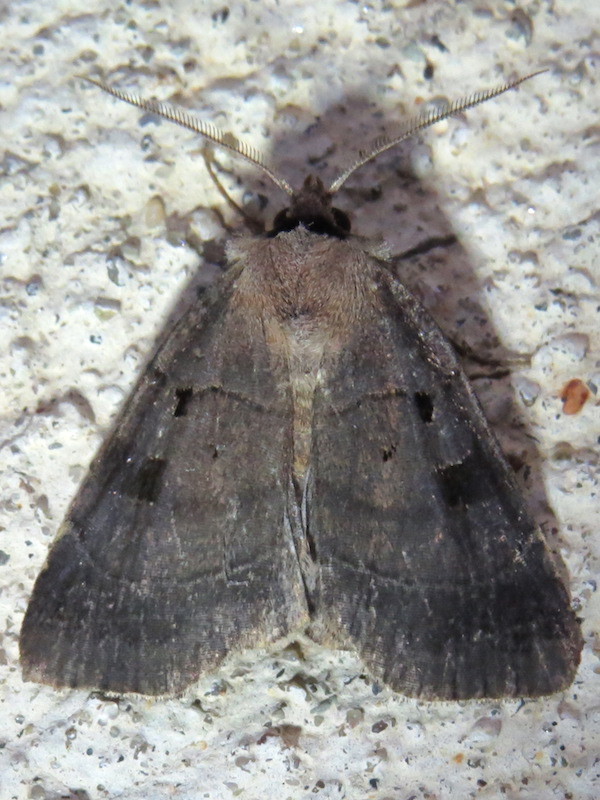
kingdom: Animalia
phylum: Arthropoda
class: Insecta
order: Lepidoptera
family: Noctuidae
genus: Agnorisma
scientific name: Agnorisma badinodis
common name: Pale-banded dart
